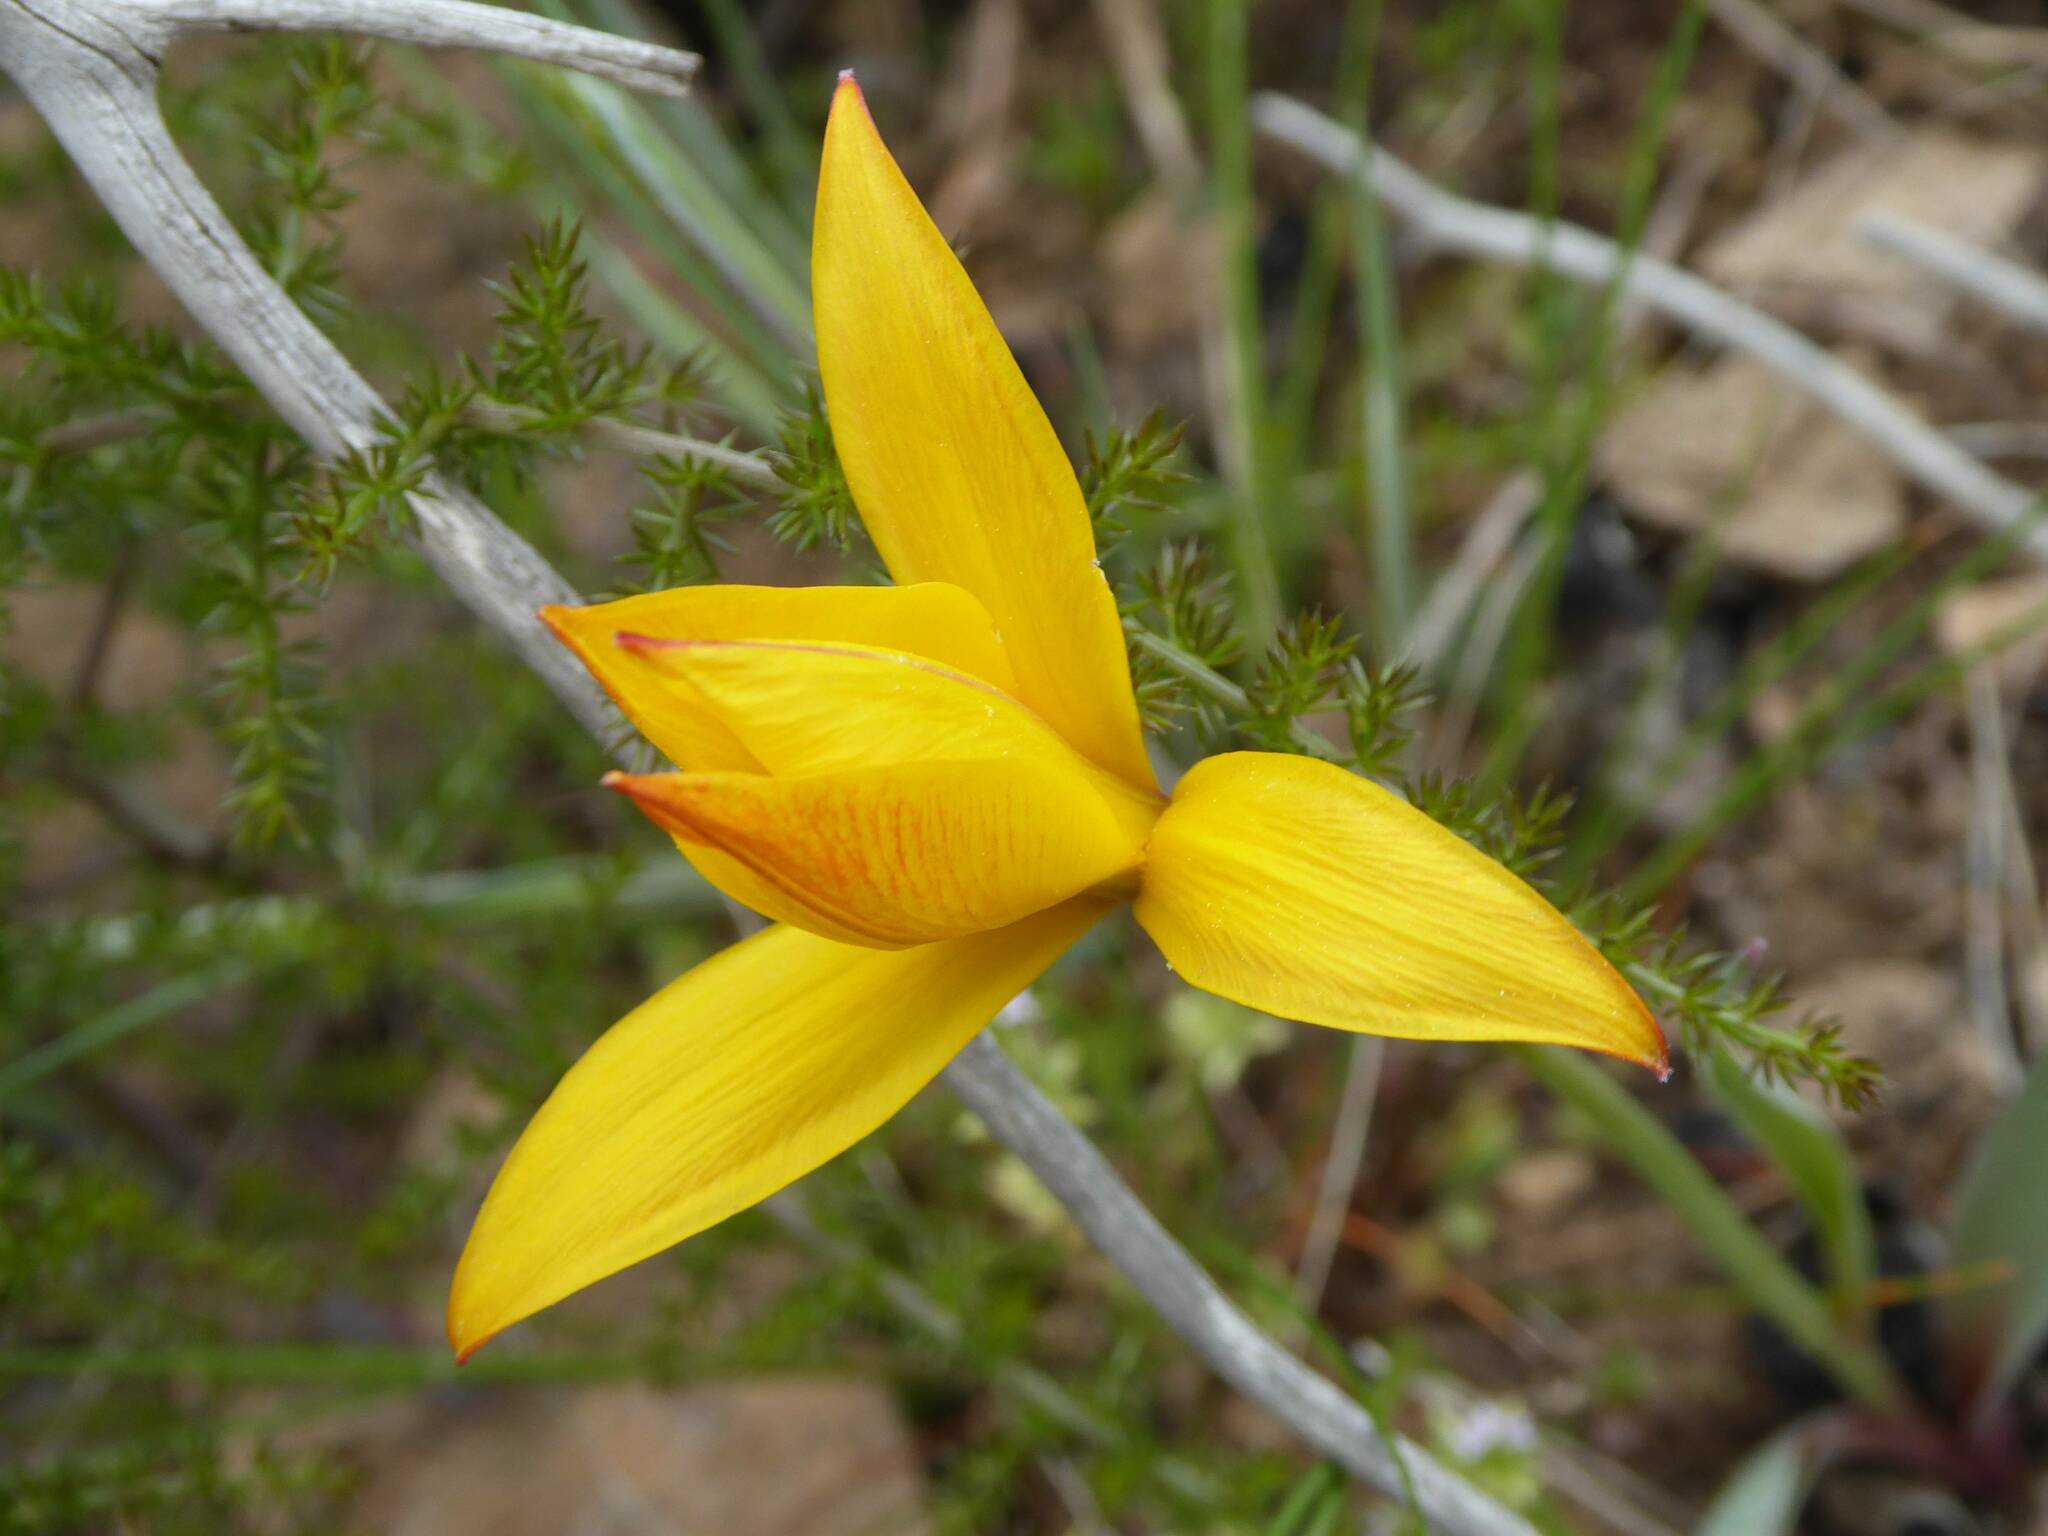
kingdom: Plantae
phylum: Tracheophyta
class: Liliopsida
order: Liliales
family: Liliaceae
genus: Tulipa
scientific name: Tulipa sylvestris
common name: Wild tulip
